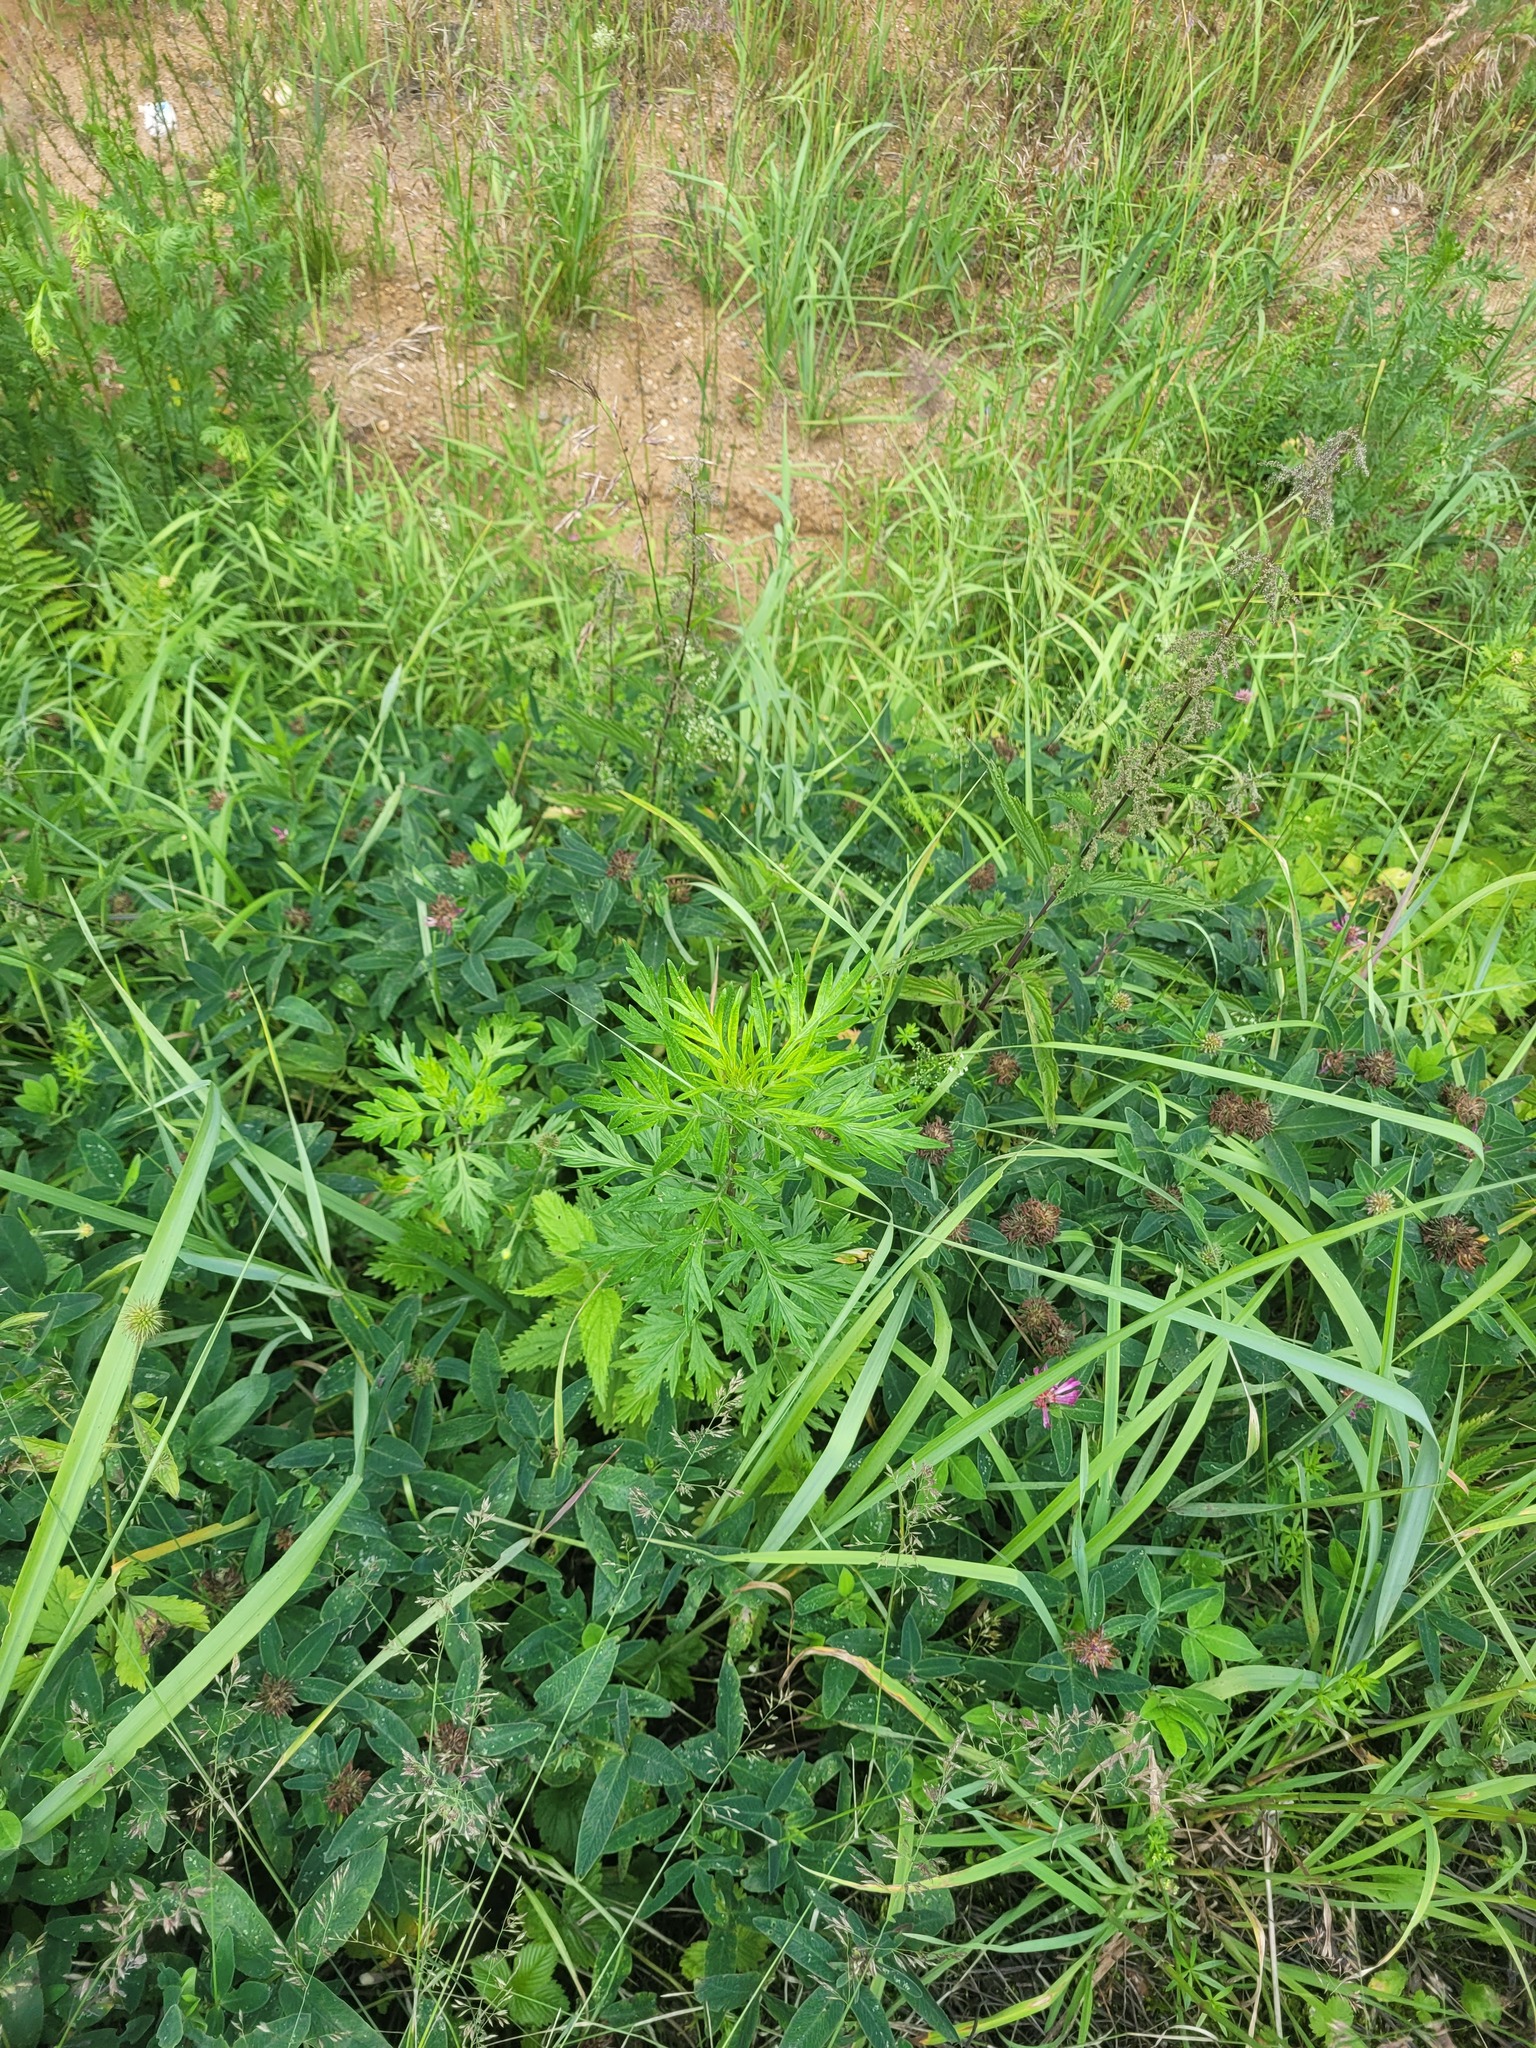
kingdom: Plantae
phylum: Tracheophyta
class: Magnoliopsida
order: Asterales
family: Asteraceae
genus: Artemisia
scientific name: Artemisia vulgaris
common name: Mugwort
